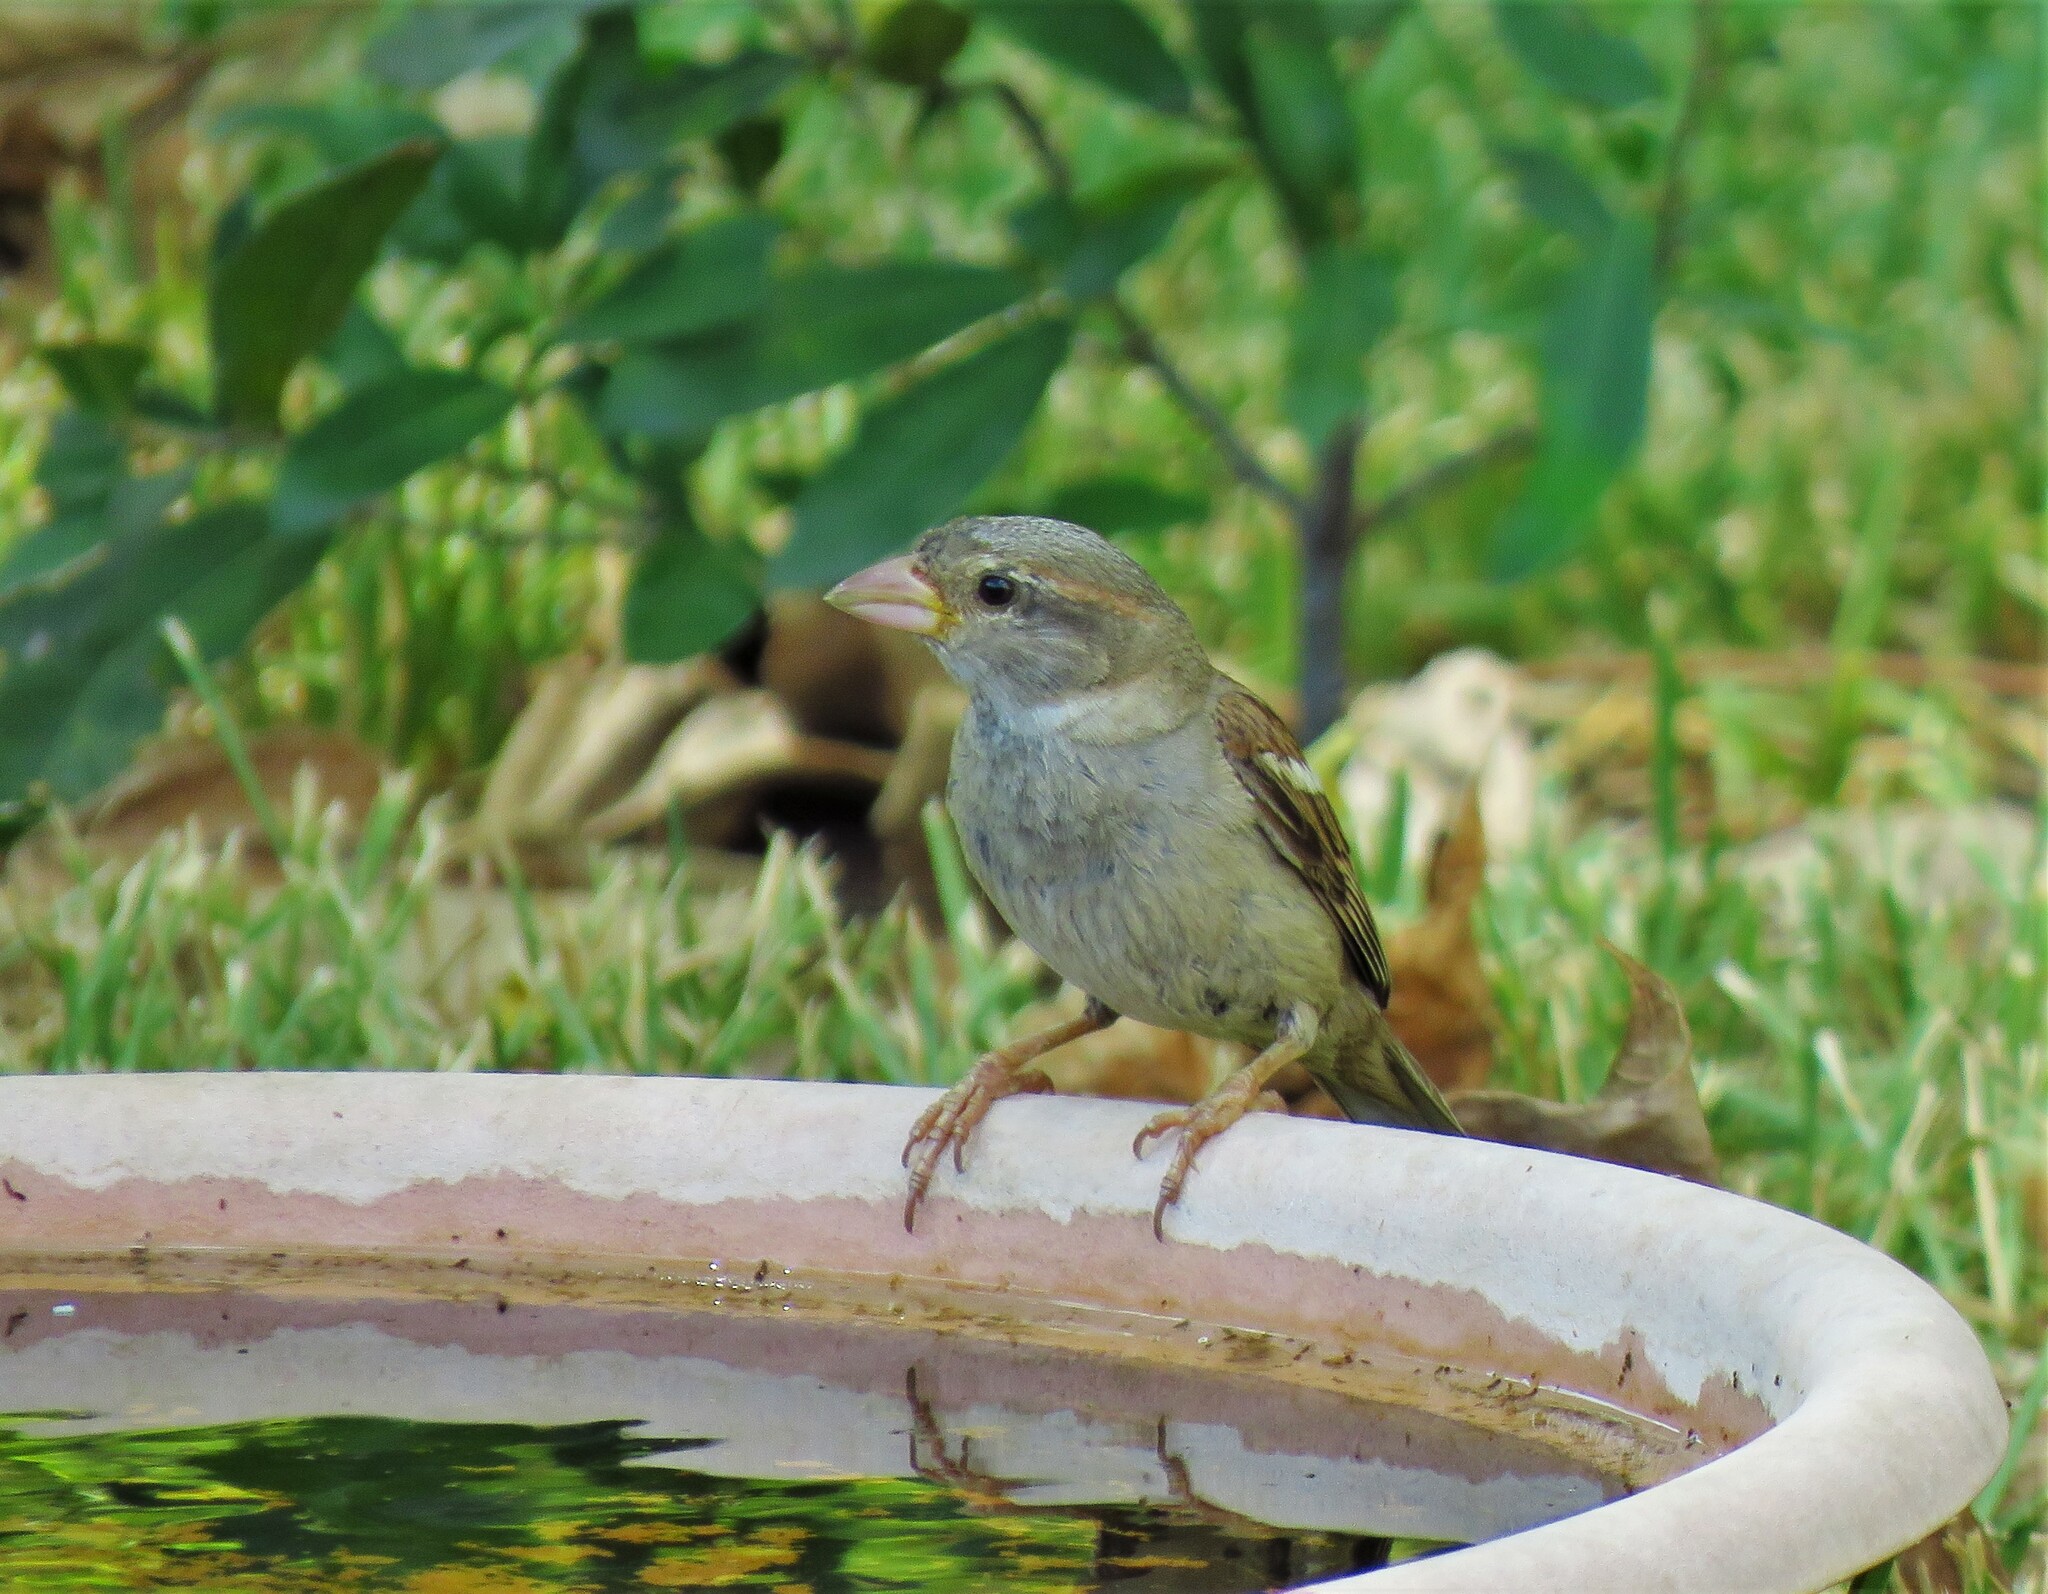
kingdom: Animalia
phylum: Chordata
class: Aves
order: Passeriformes
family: Passeridae
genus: Passer
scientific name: Passer domesticus
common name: House sparrow
